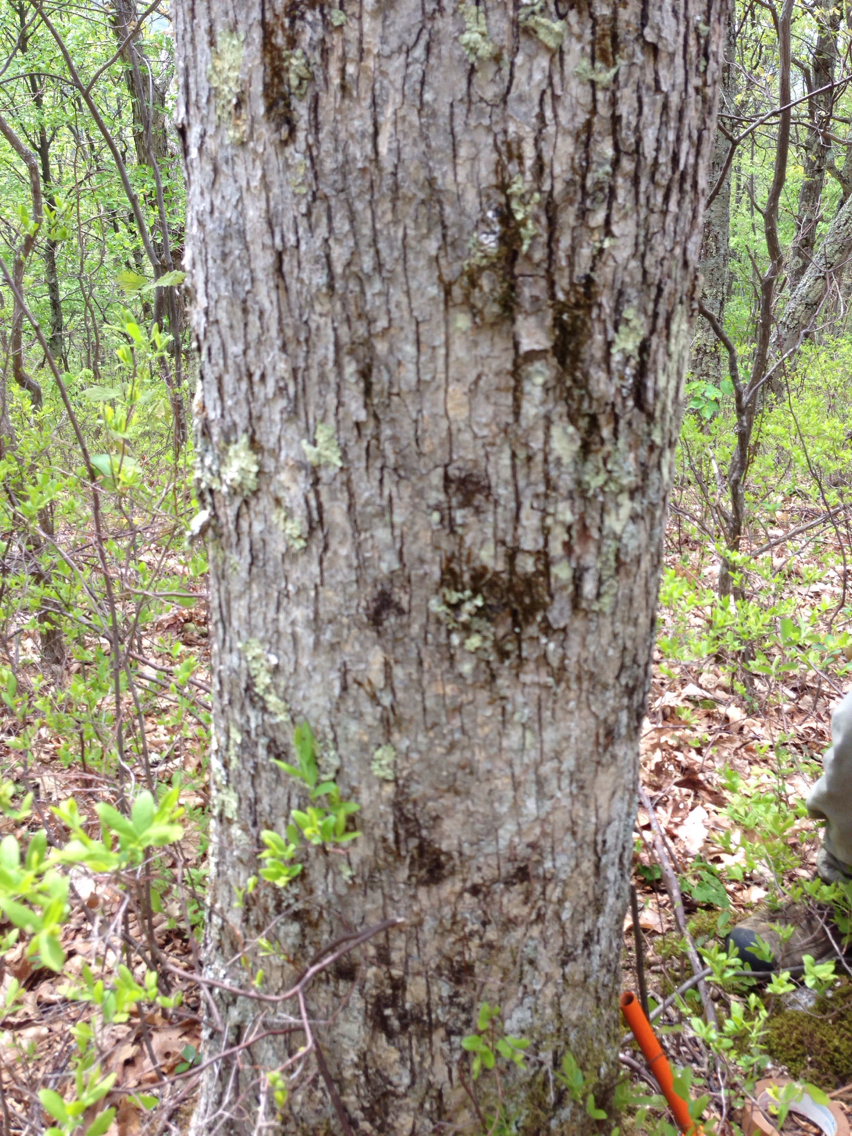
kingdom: Plantae
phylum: Tracheophyta
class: Magnoliopsida
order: Fagales
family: Fagaceae
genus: Quercus
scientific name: Quercus alba
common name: White oak
